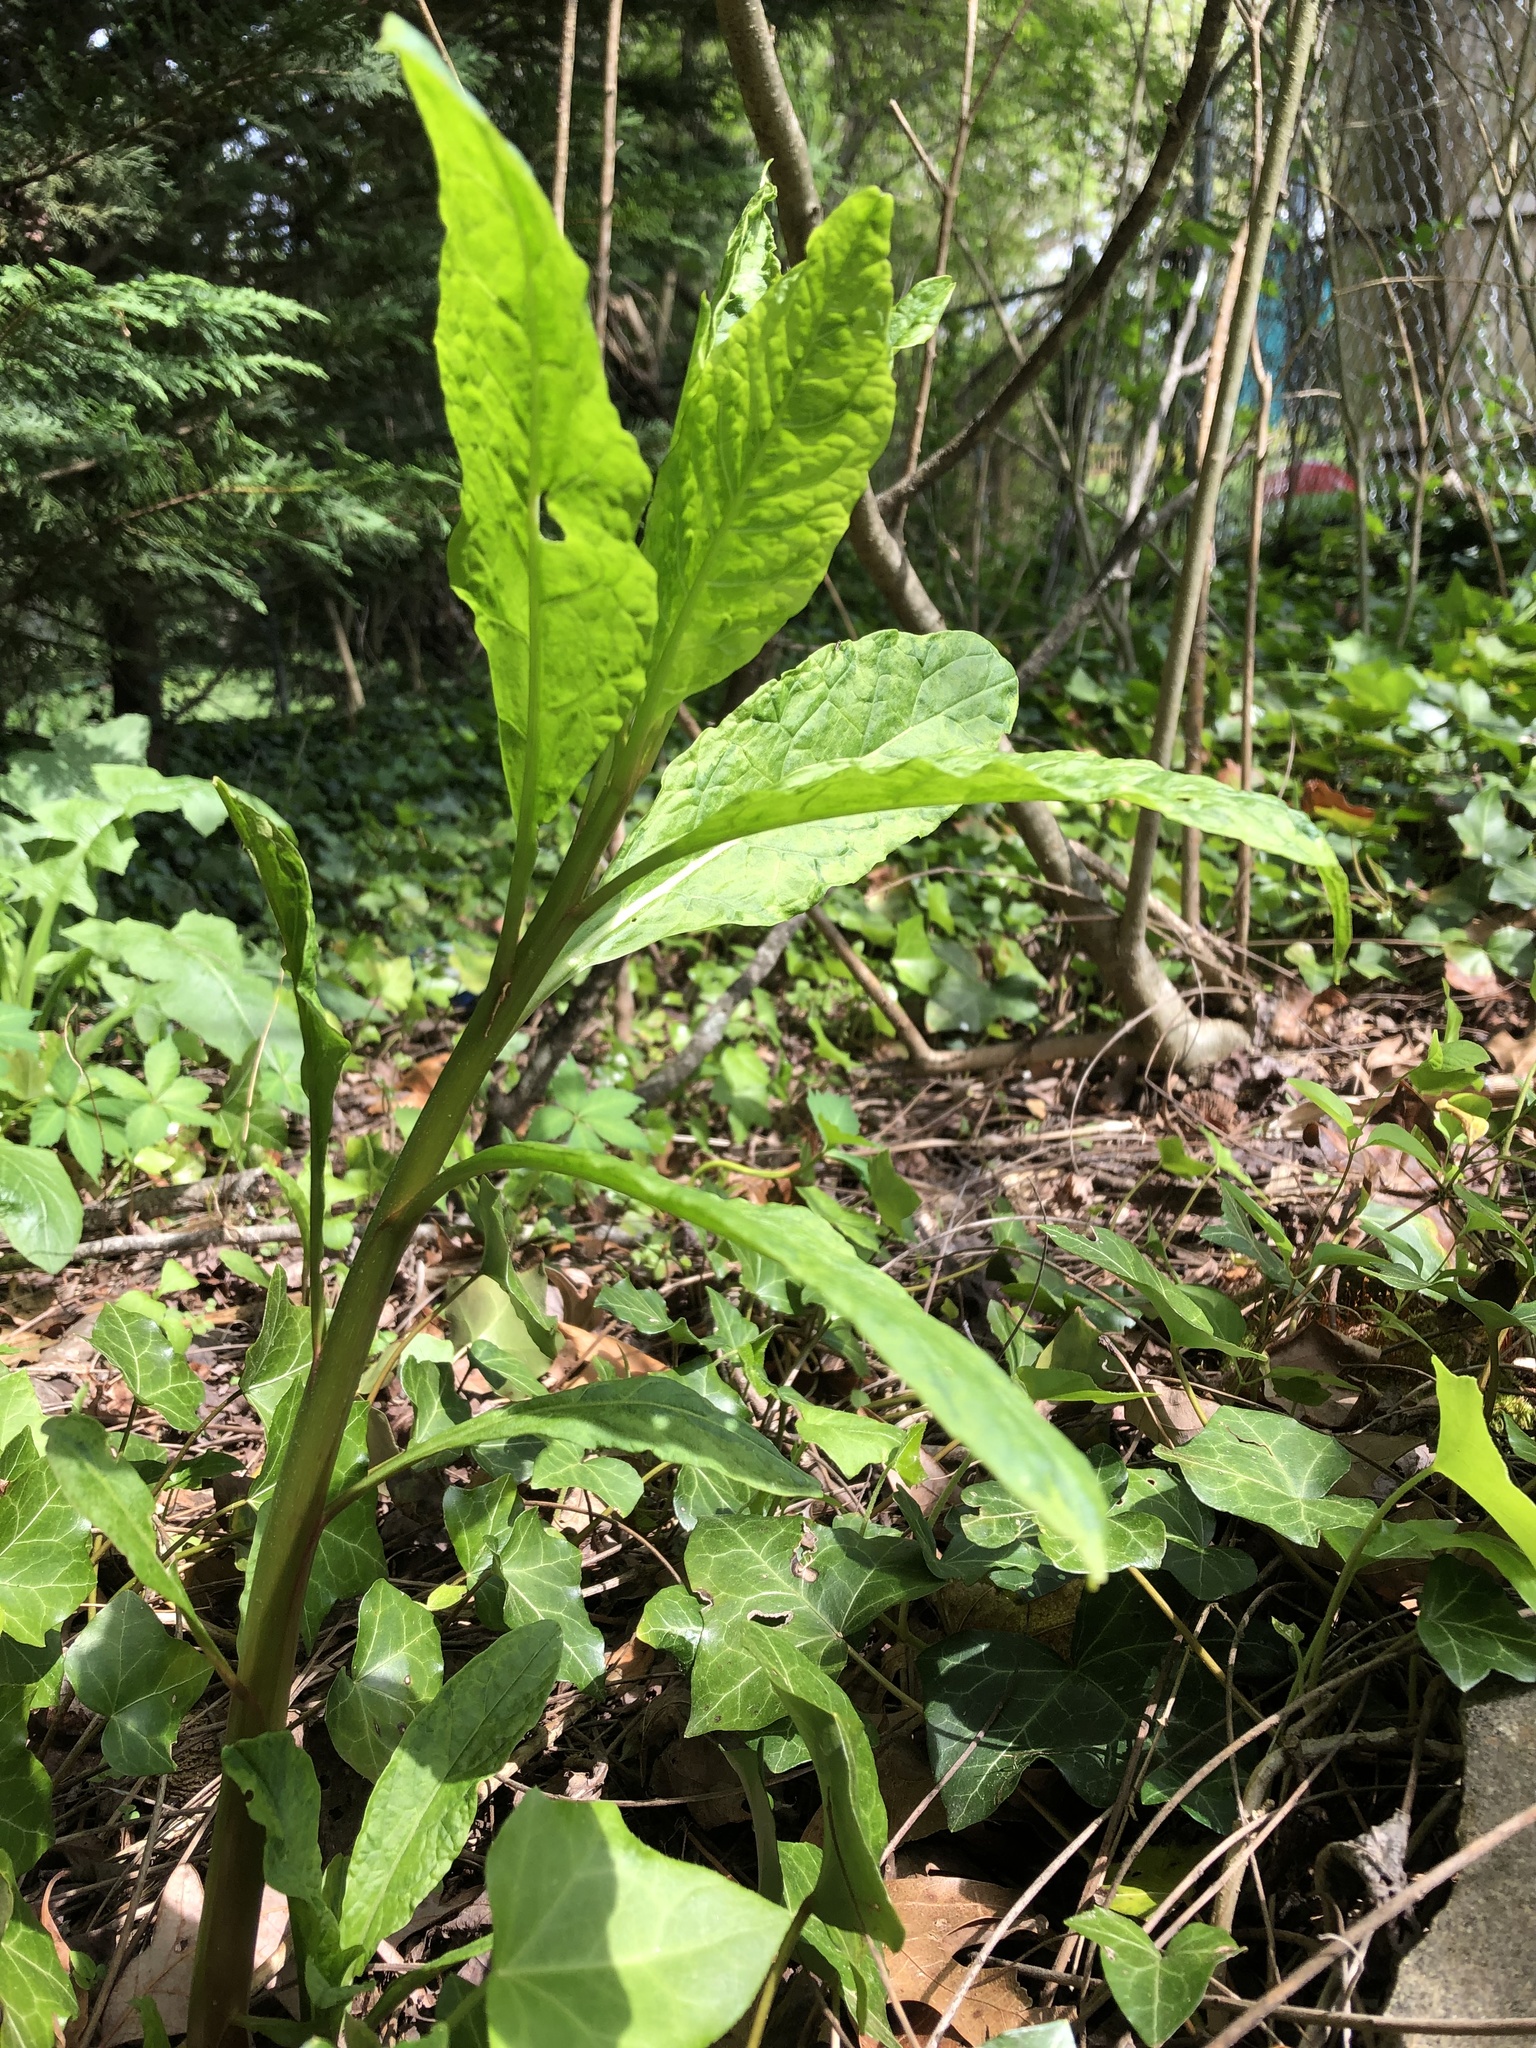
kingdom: Plantae
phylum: Tracheophyta
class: Magnoliopsida
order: Caryophyllales
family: Phytolaccaceae
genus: Phytolacca
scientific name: Phytolacca americana
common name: American pokeweed
